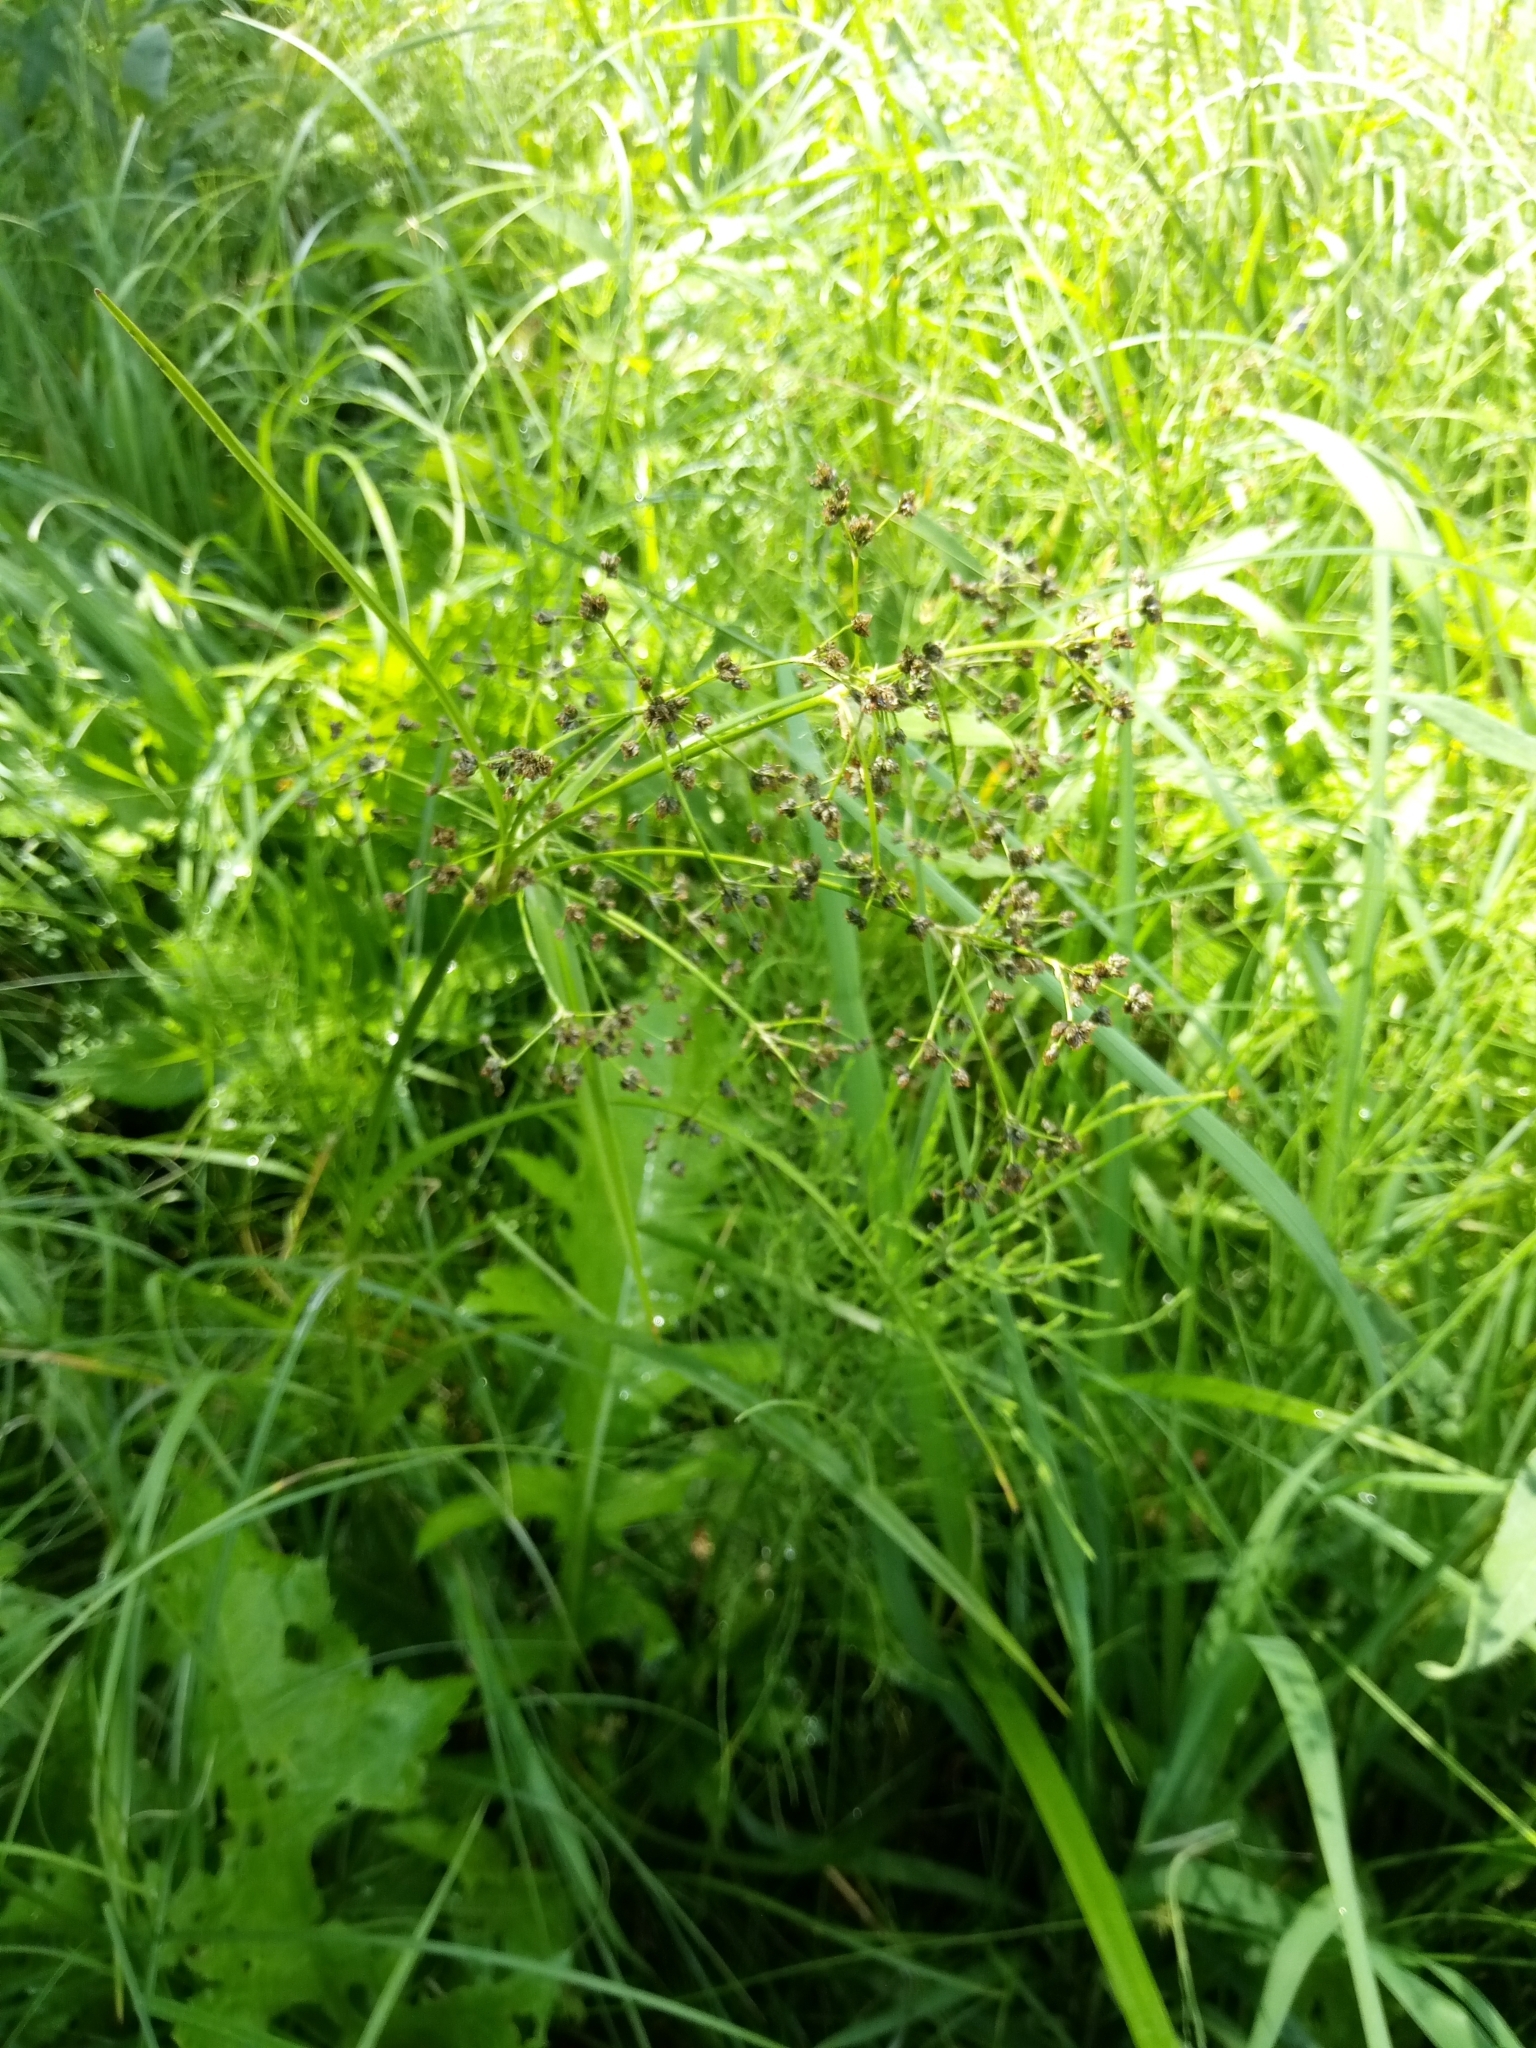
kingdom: Plantae
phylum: Tracheophyta
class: Liliopsida
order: Poales
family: Cyperaceae
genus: Scirpus
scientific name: Scirpus sylvaticus
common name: Wood club-rush
